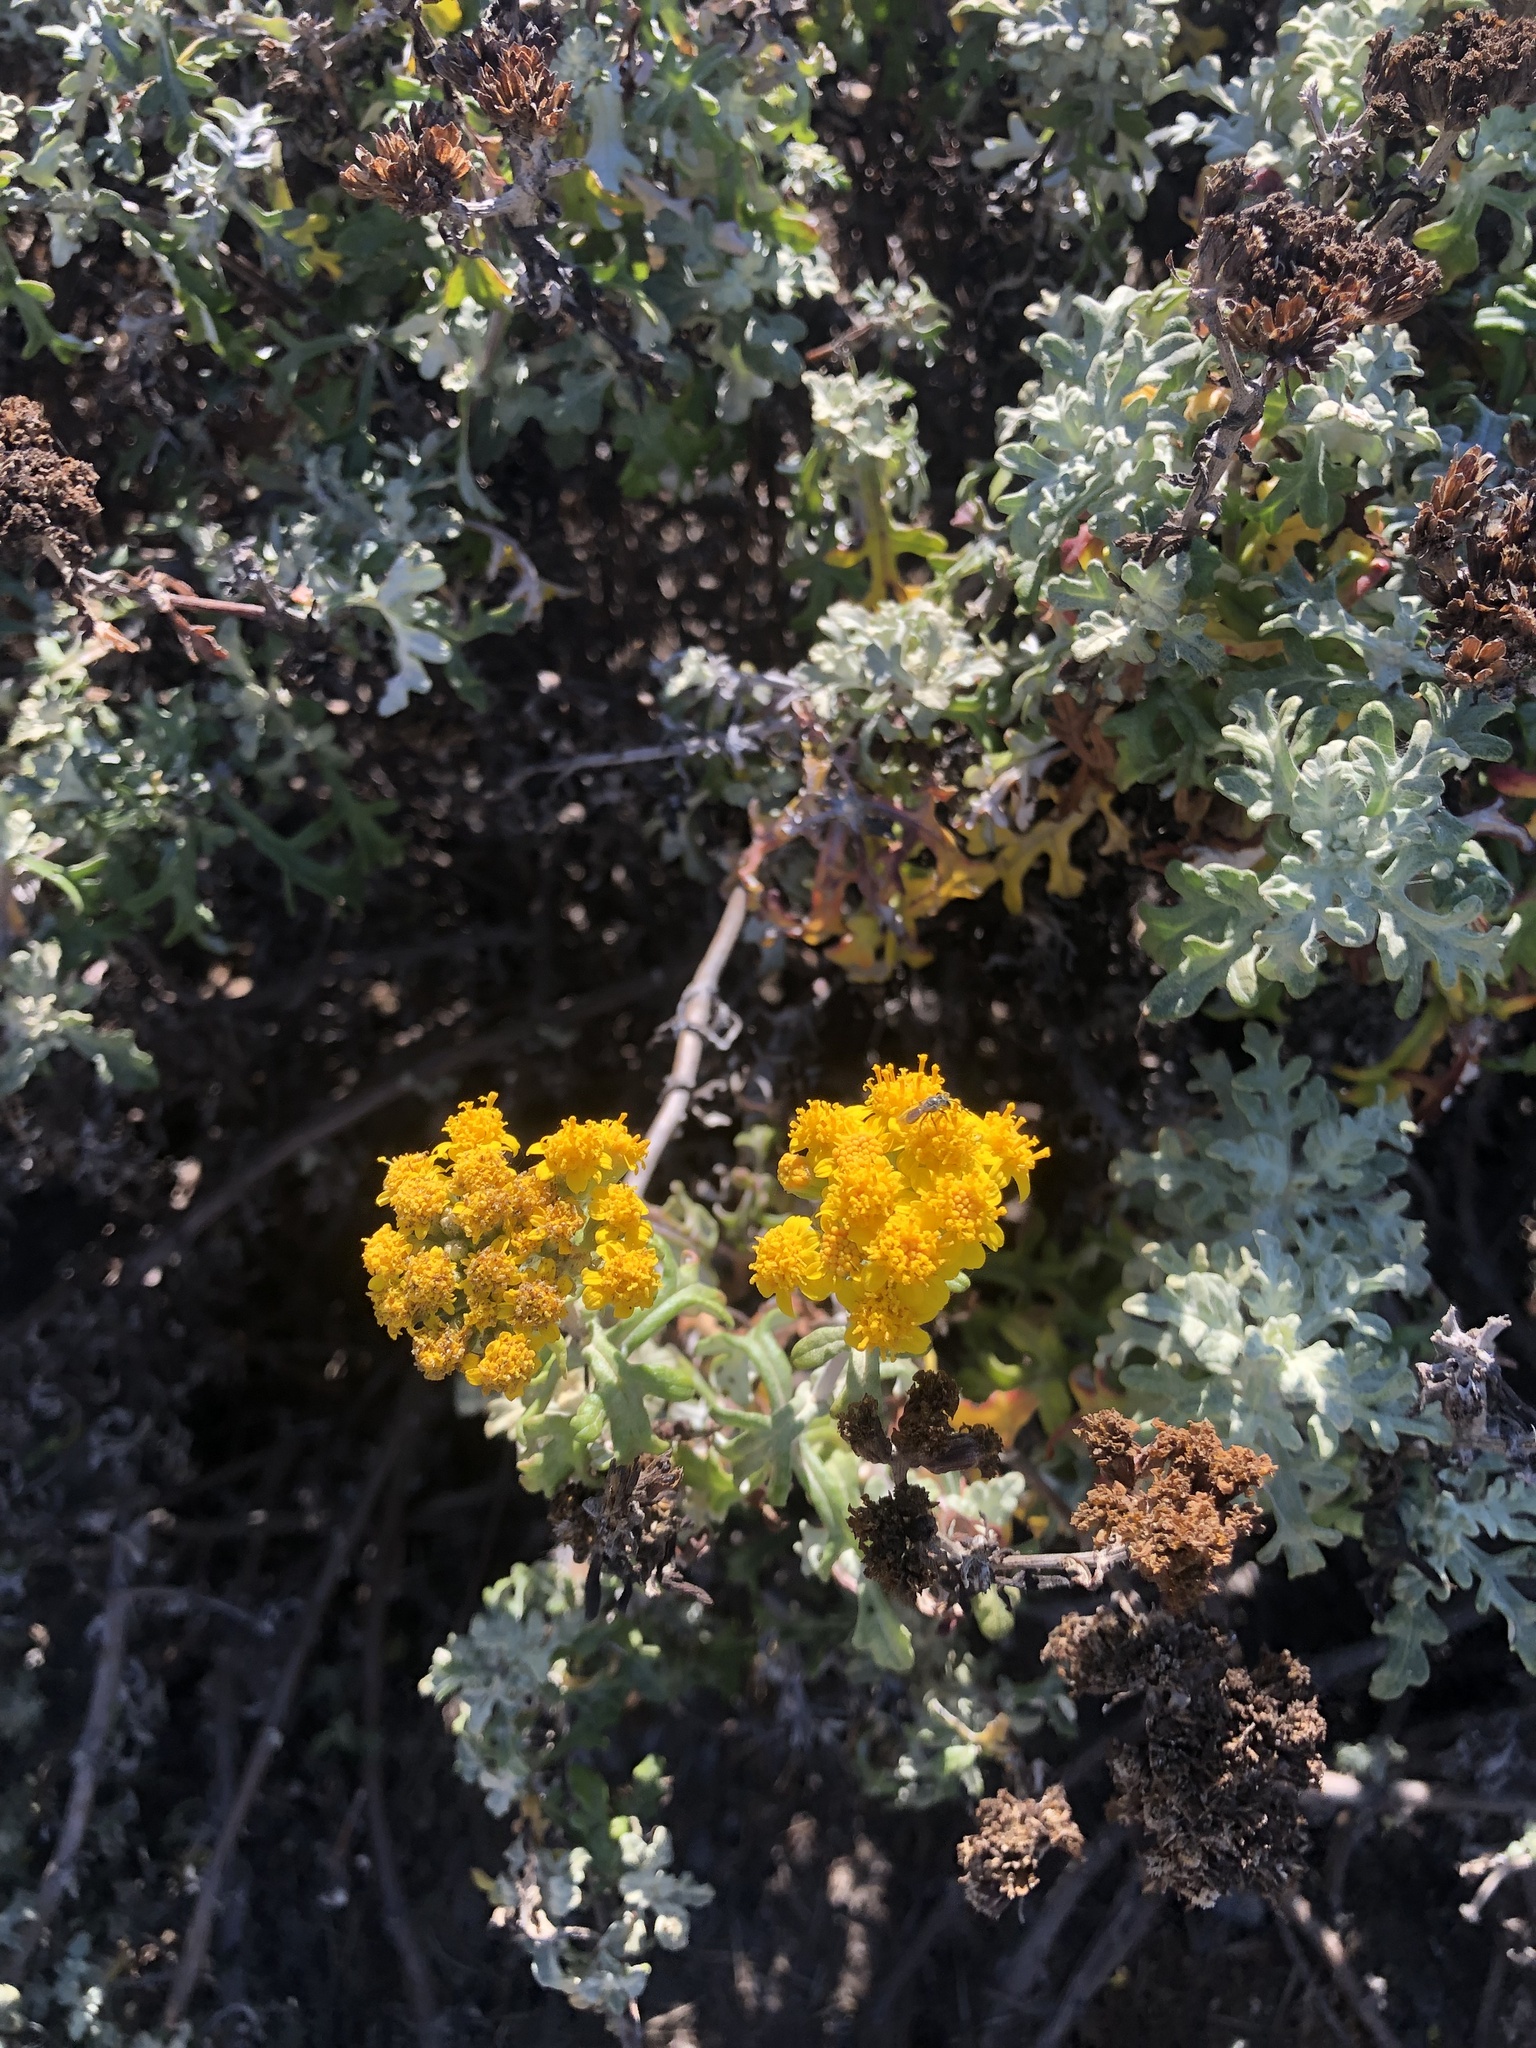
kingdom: Plantae
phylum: Tracheophyta
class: Magnoliopsida
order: Asterales
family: Asteraceae
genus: Eriophyllum
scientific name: Eriophyllum staechadifolium
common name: Lizardtail
